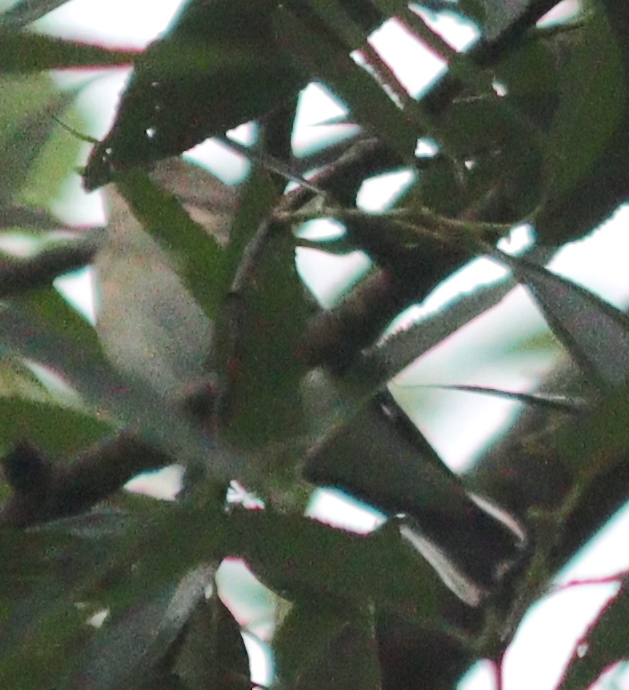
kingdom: Animalia
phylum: Chordata
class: Aves
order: Passeriformes
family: Phylloscopidae
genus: Phylloscopus
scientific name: Phylloscopus sibillatrix
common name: Wood warbler
